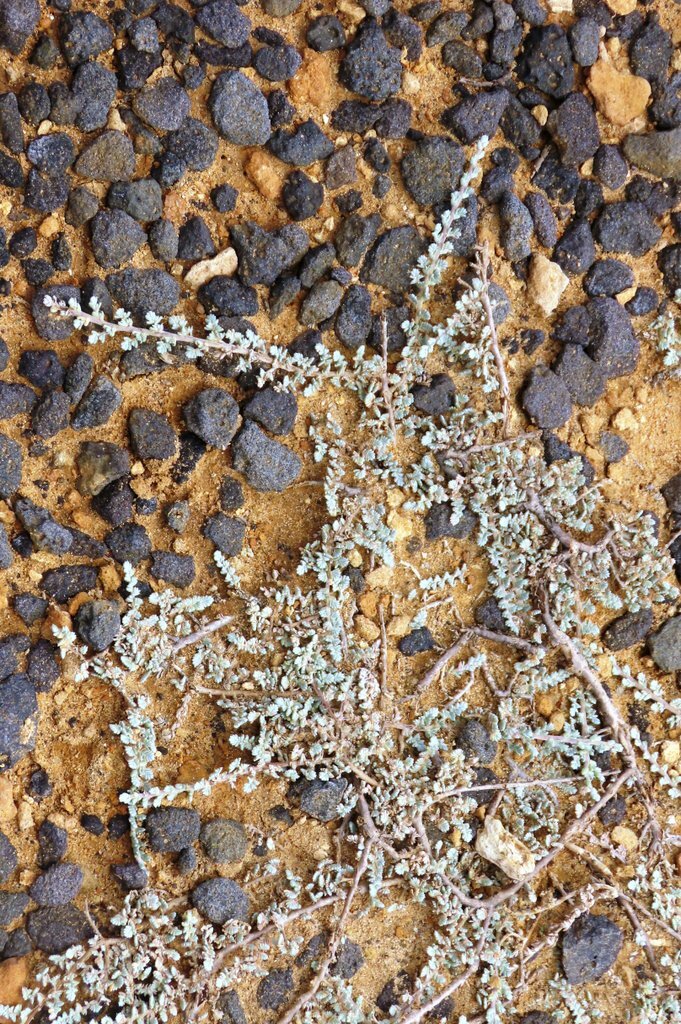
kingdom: Plantae
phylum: Tracheophyta
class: Magnoliopsida
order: Solanales
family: Convolvulaceae
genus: Wilsonia
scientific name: Wilsonia humilis
